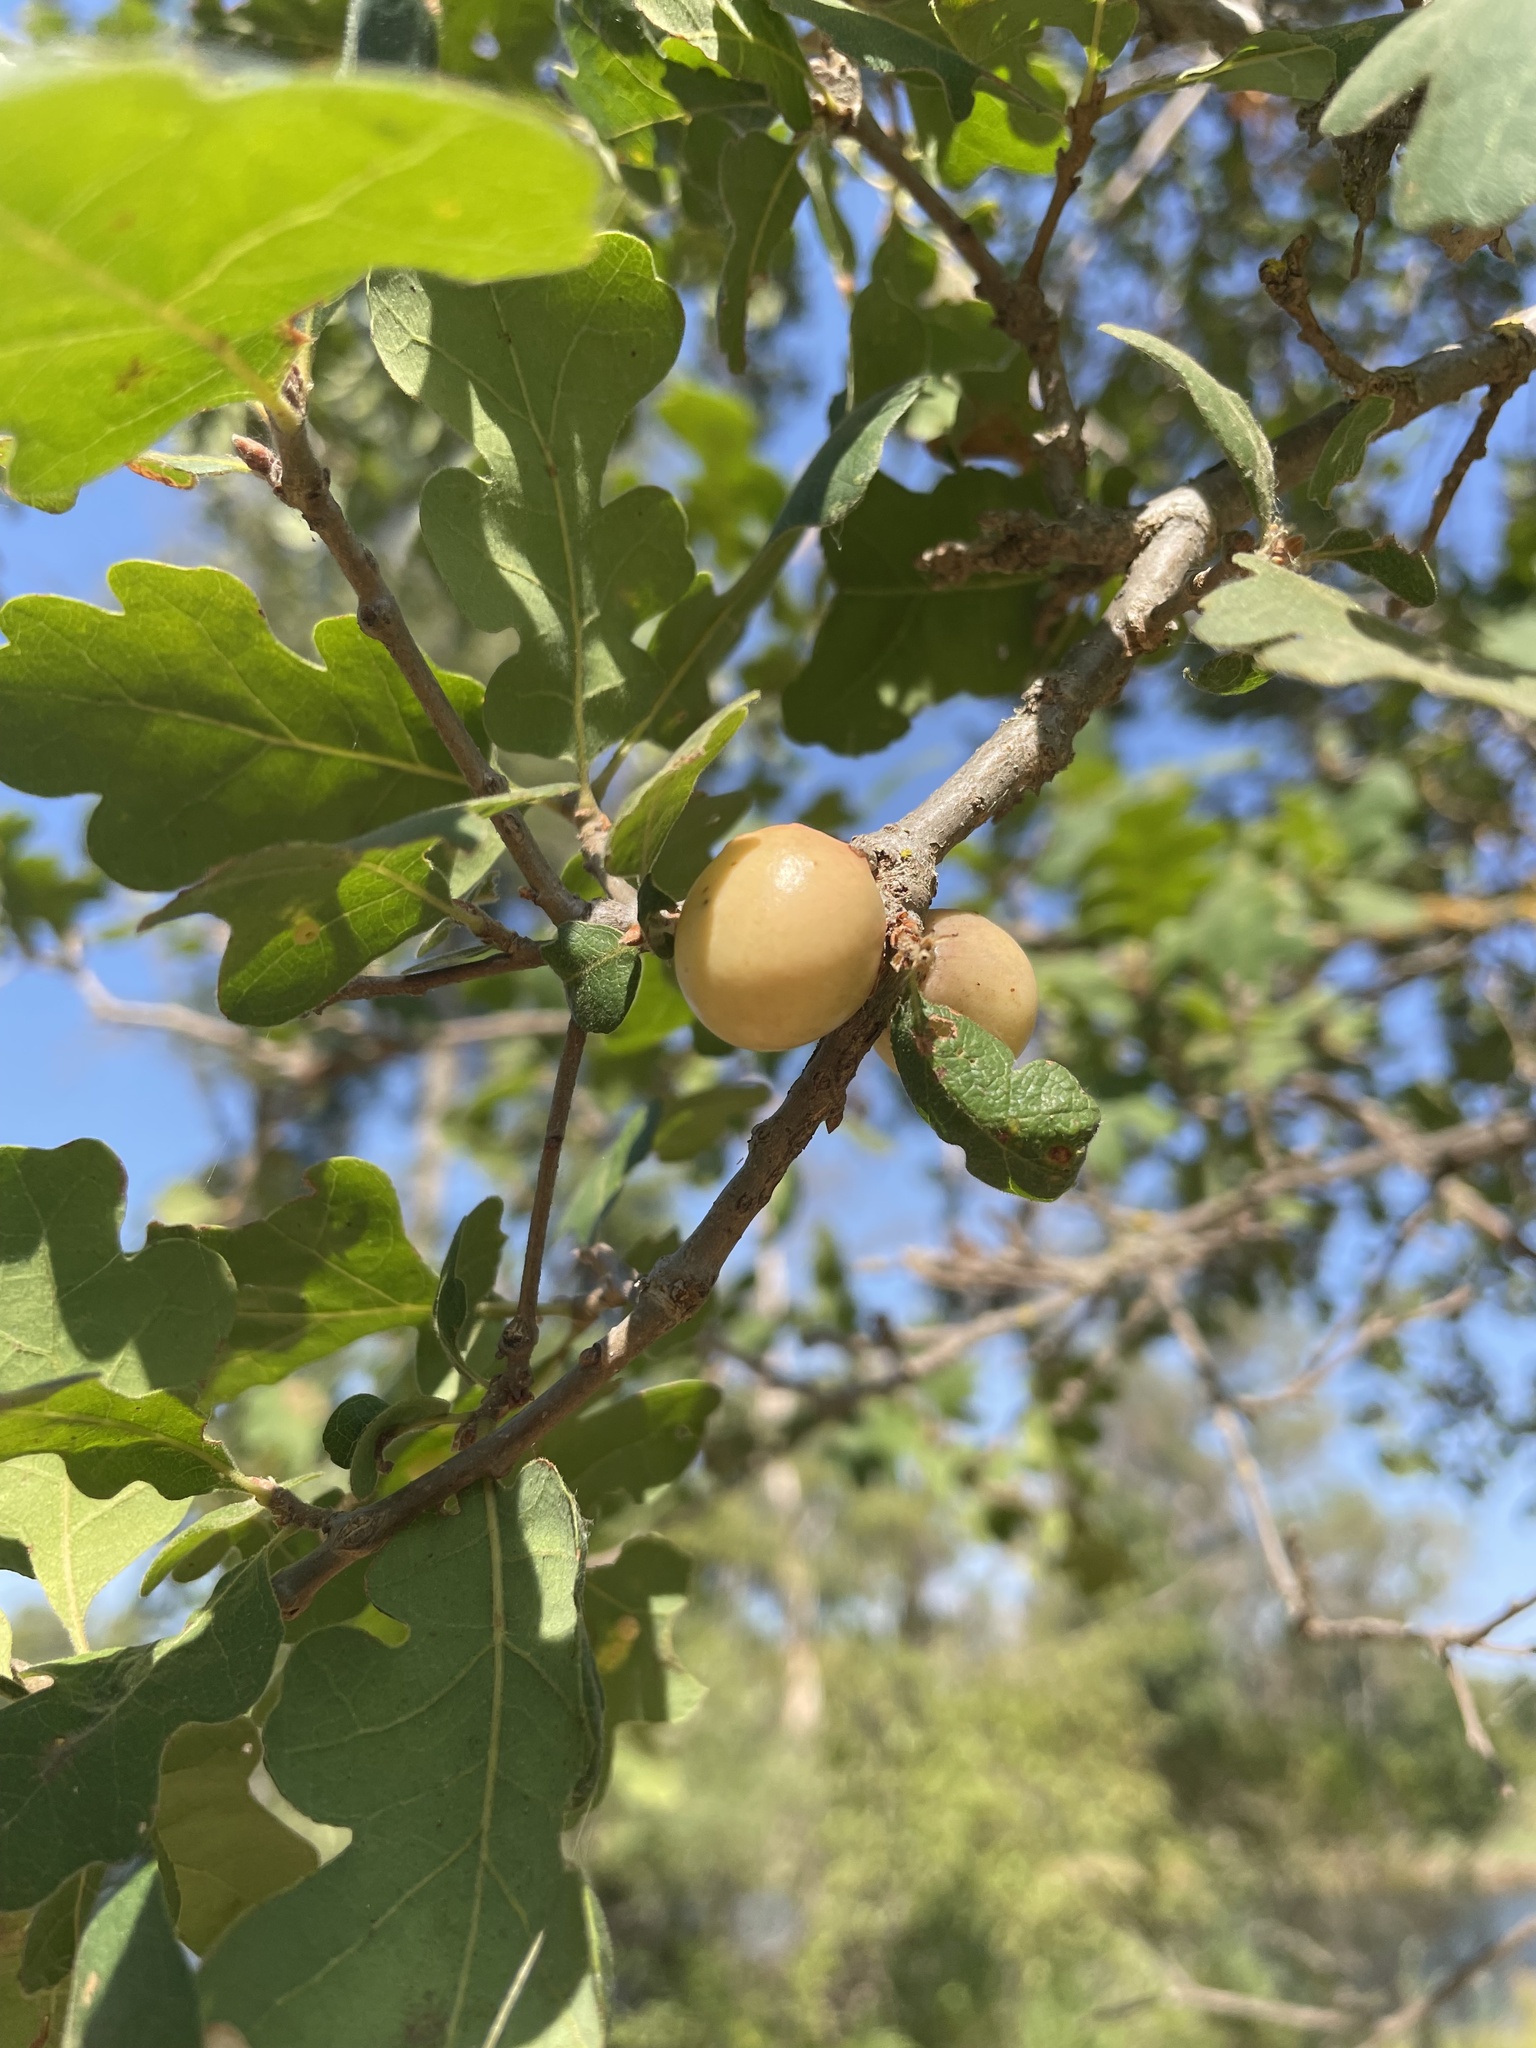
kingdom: Animalia
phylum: Arthropoda
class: Insecta
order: Hymenoptera
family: Cynipidae
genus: Andricus
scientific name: Andricus quercuscalifornicus
